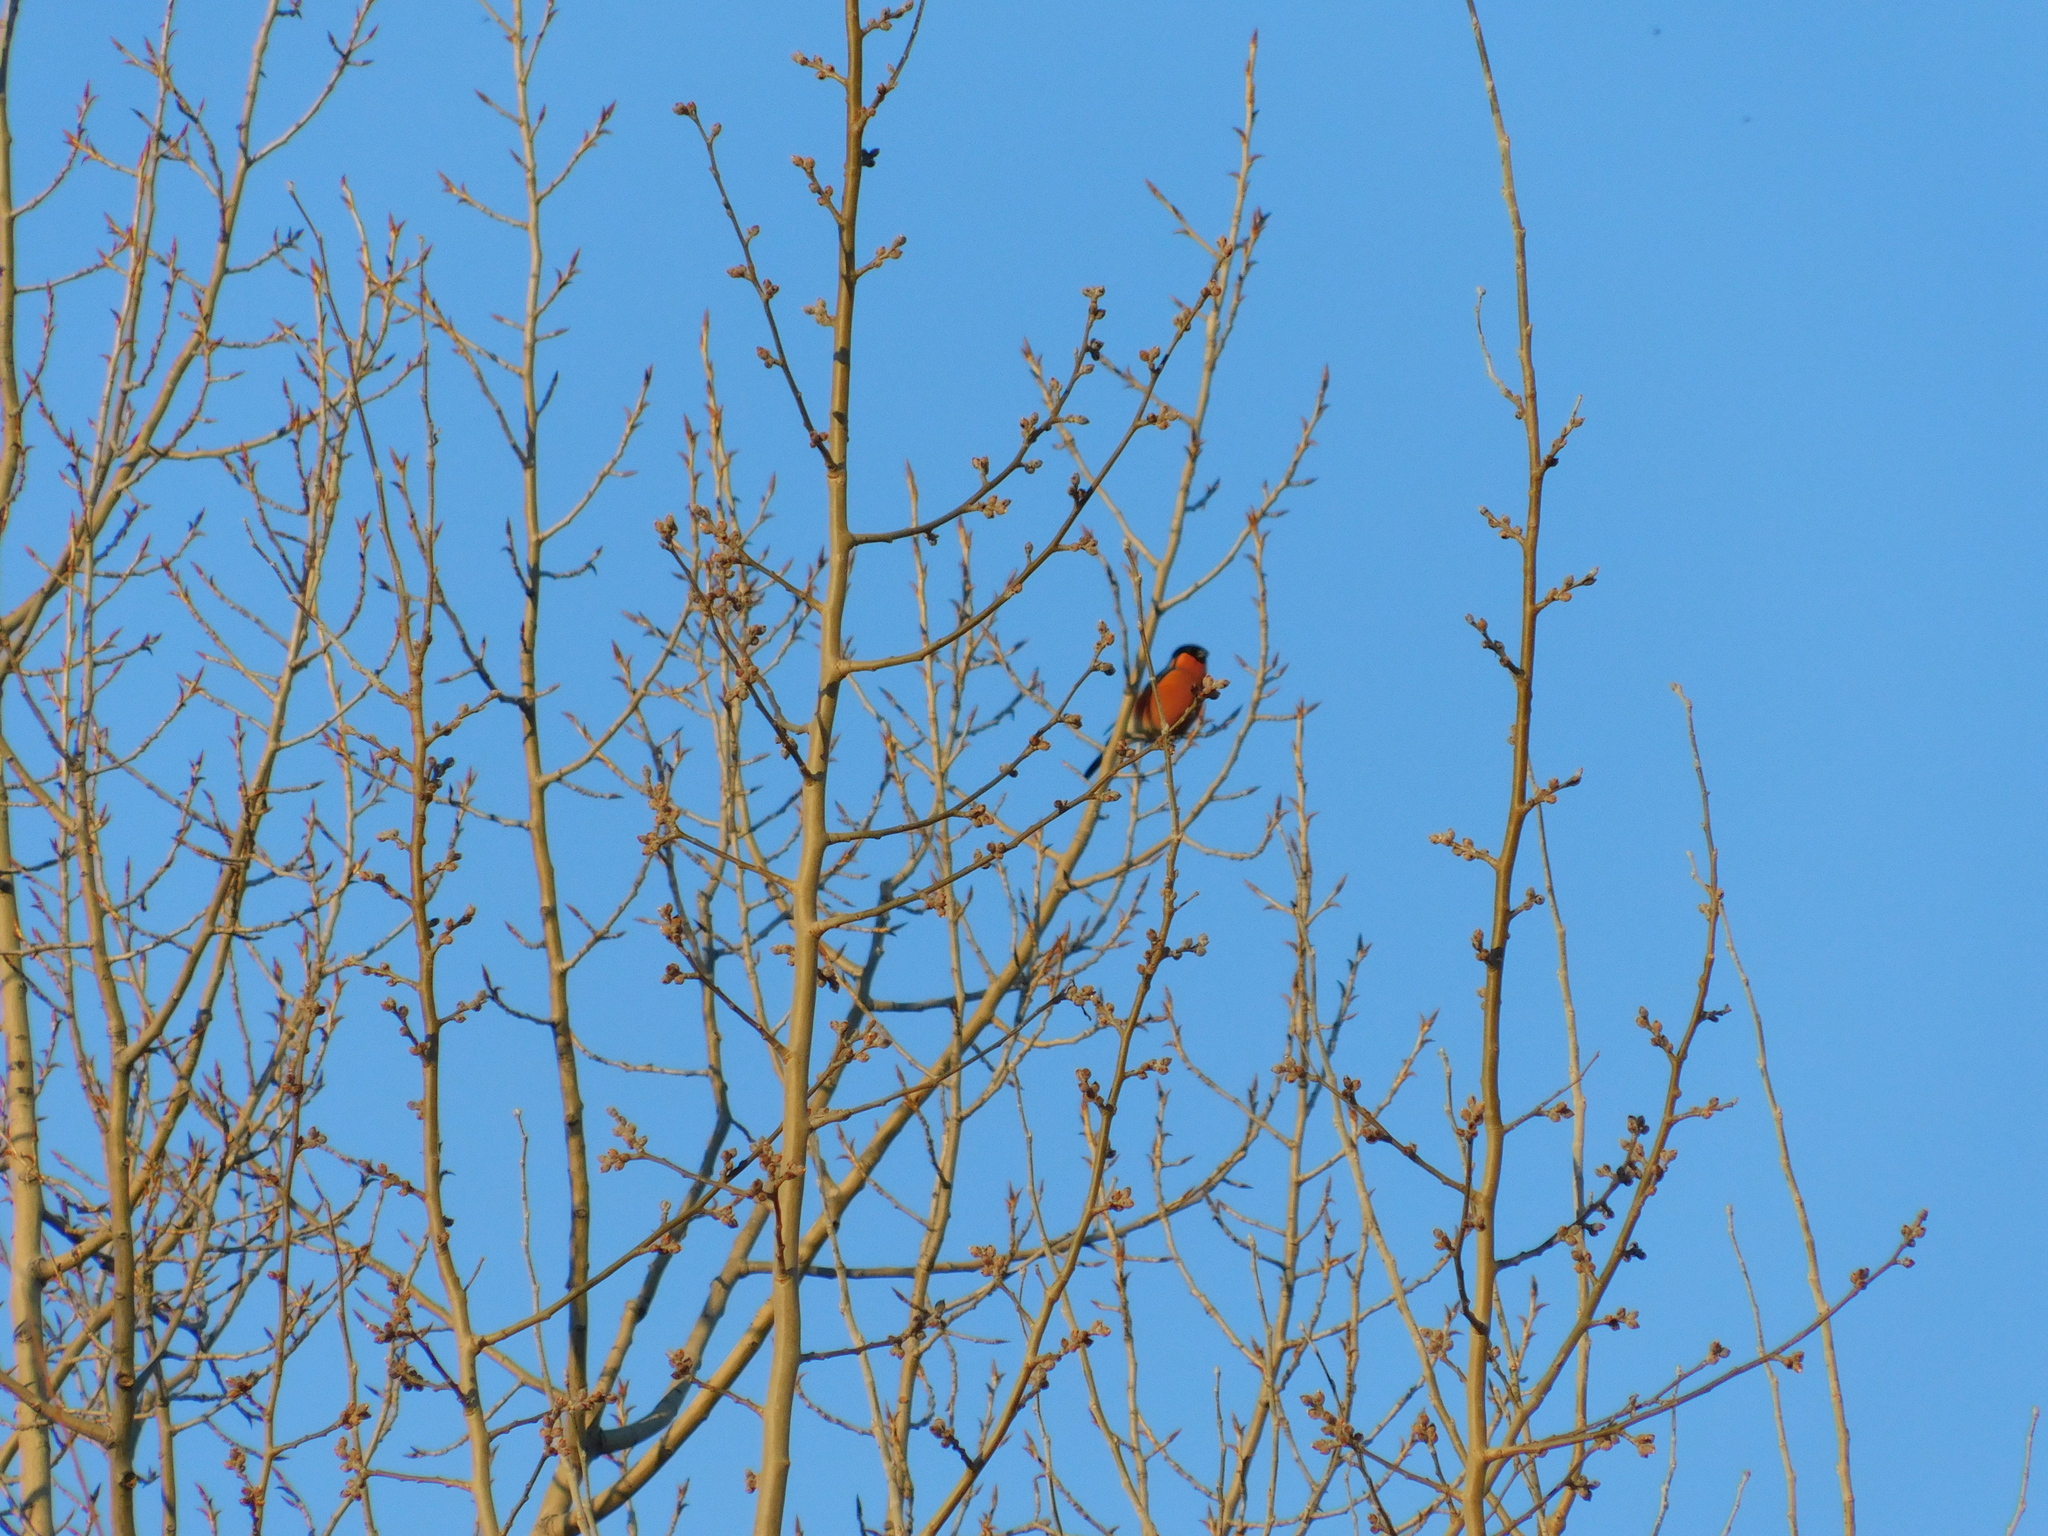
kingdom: Animalia
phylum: Chordata
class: Aves
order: Passeriformes
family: Fringillidae
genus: Pyrrhula
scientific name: Pyrrhula pyrrhula
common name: Eurasian bullfinch
